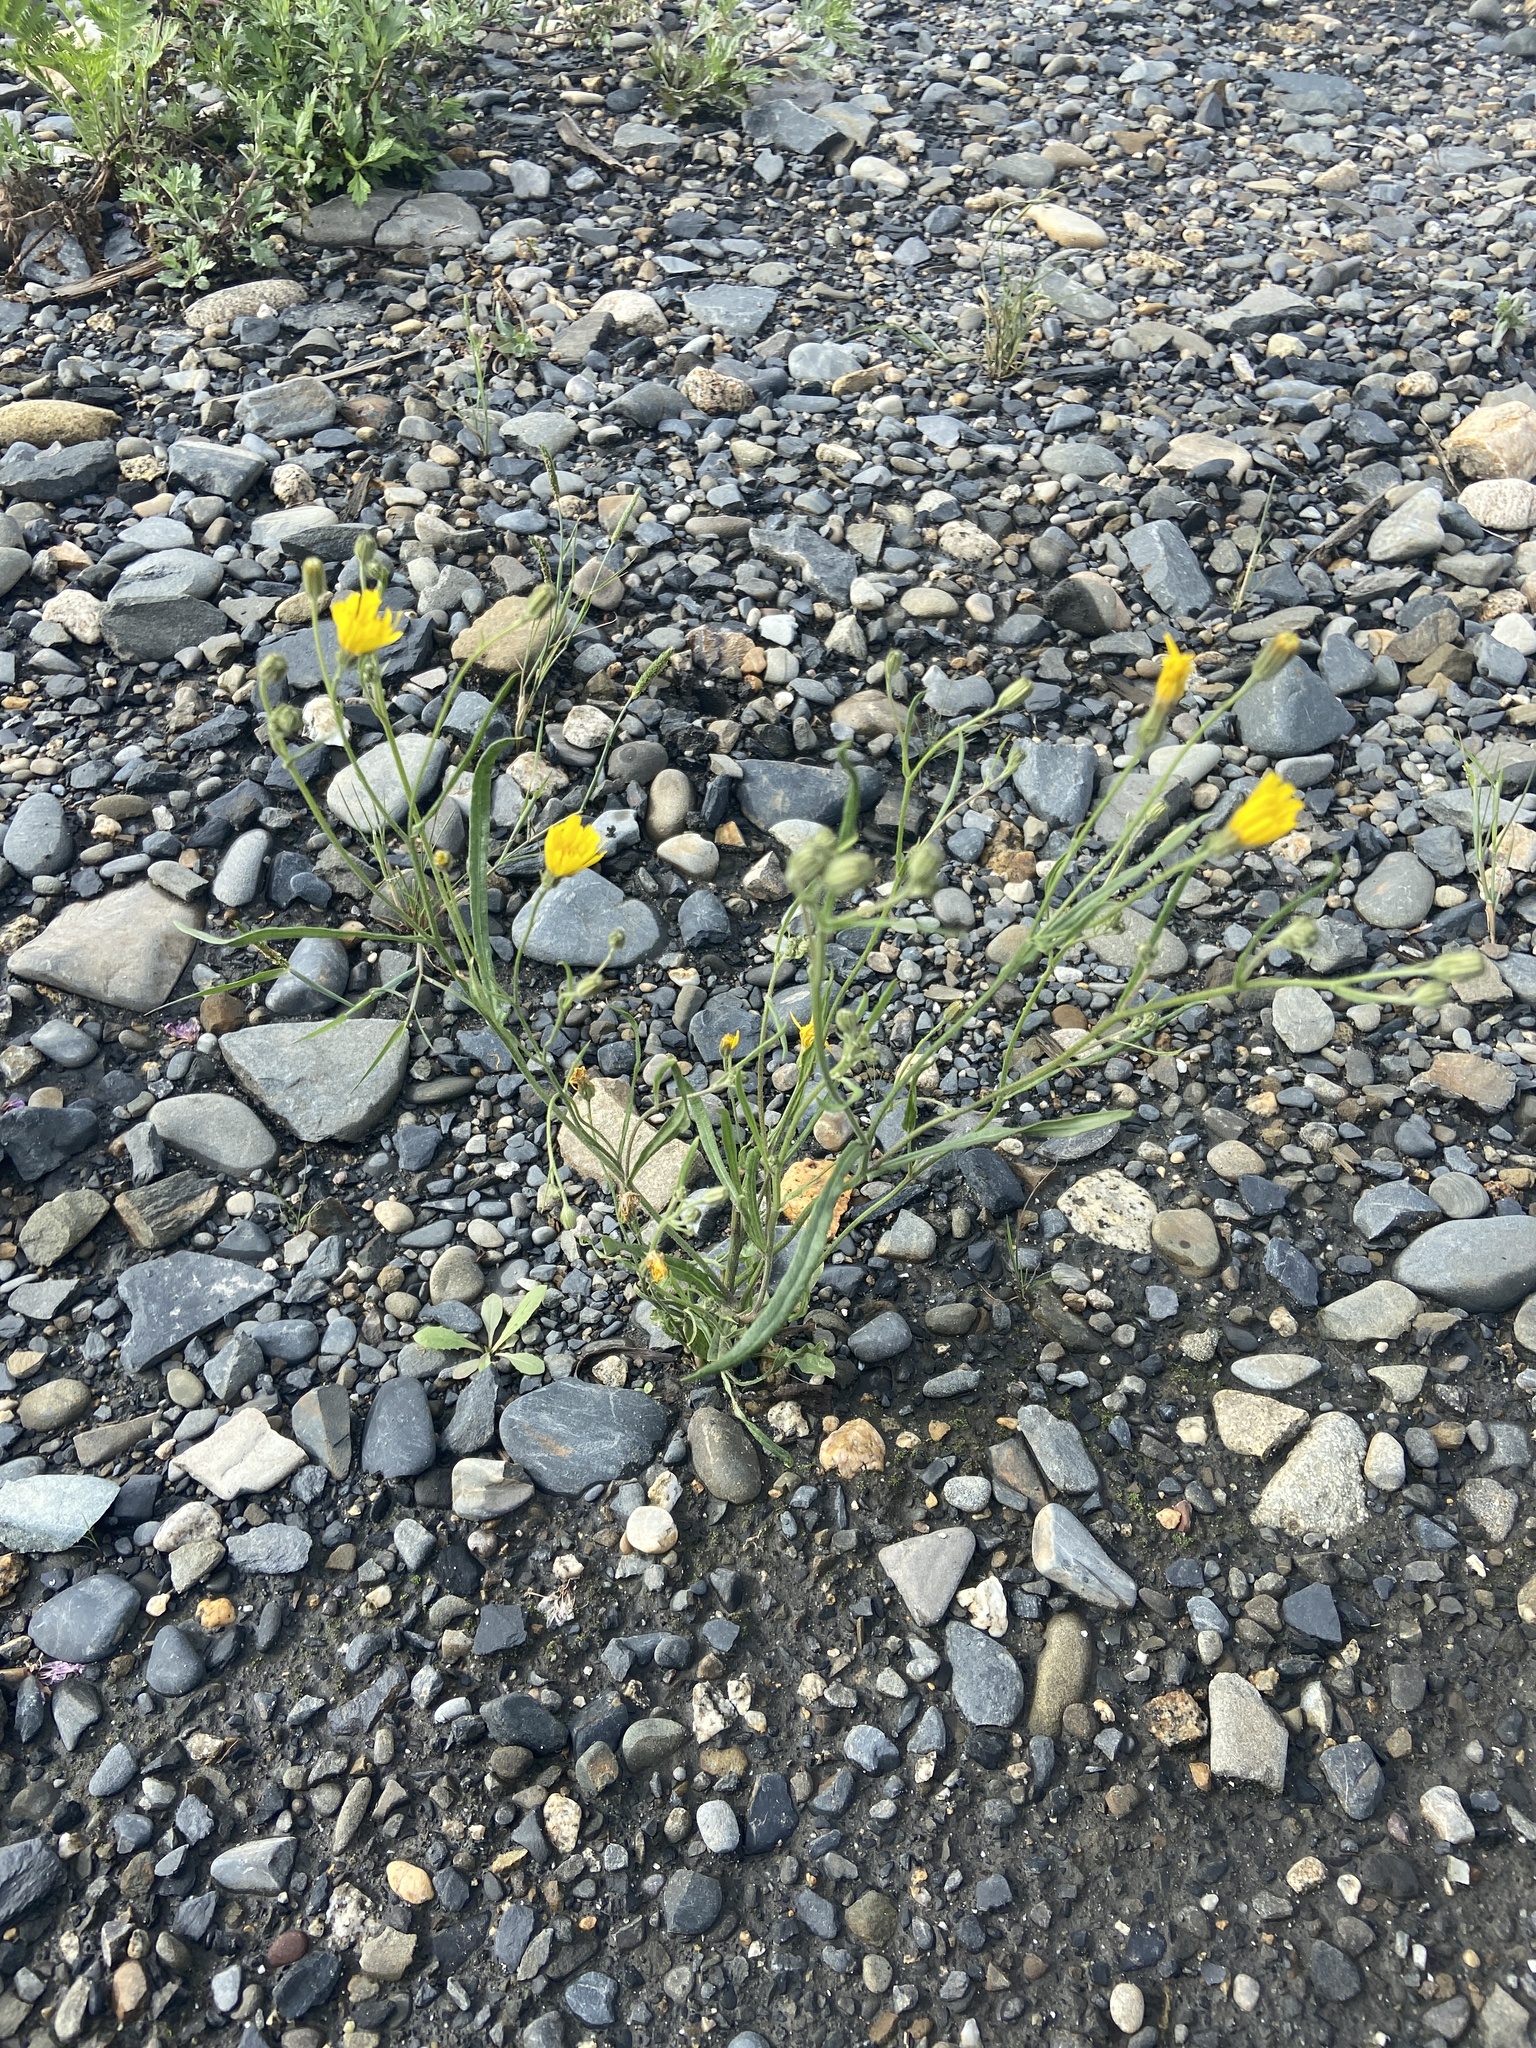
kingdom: Plantae
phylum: Tracheophyta
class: Magnoliopsida
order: Asterales
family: Asteraceae
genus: Crepis
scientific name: Crepis tectorum
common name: Narrow-leaved hawk's-beard
